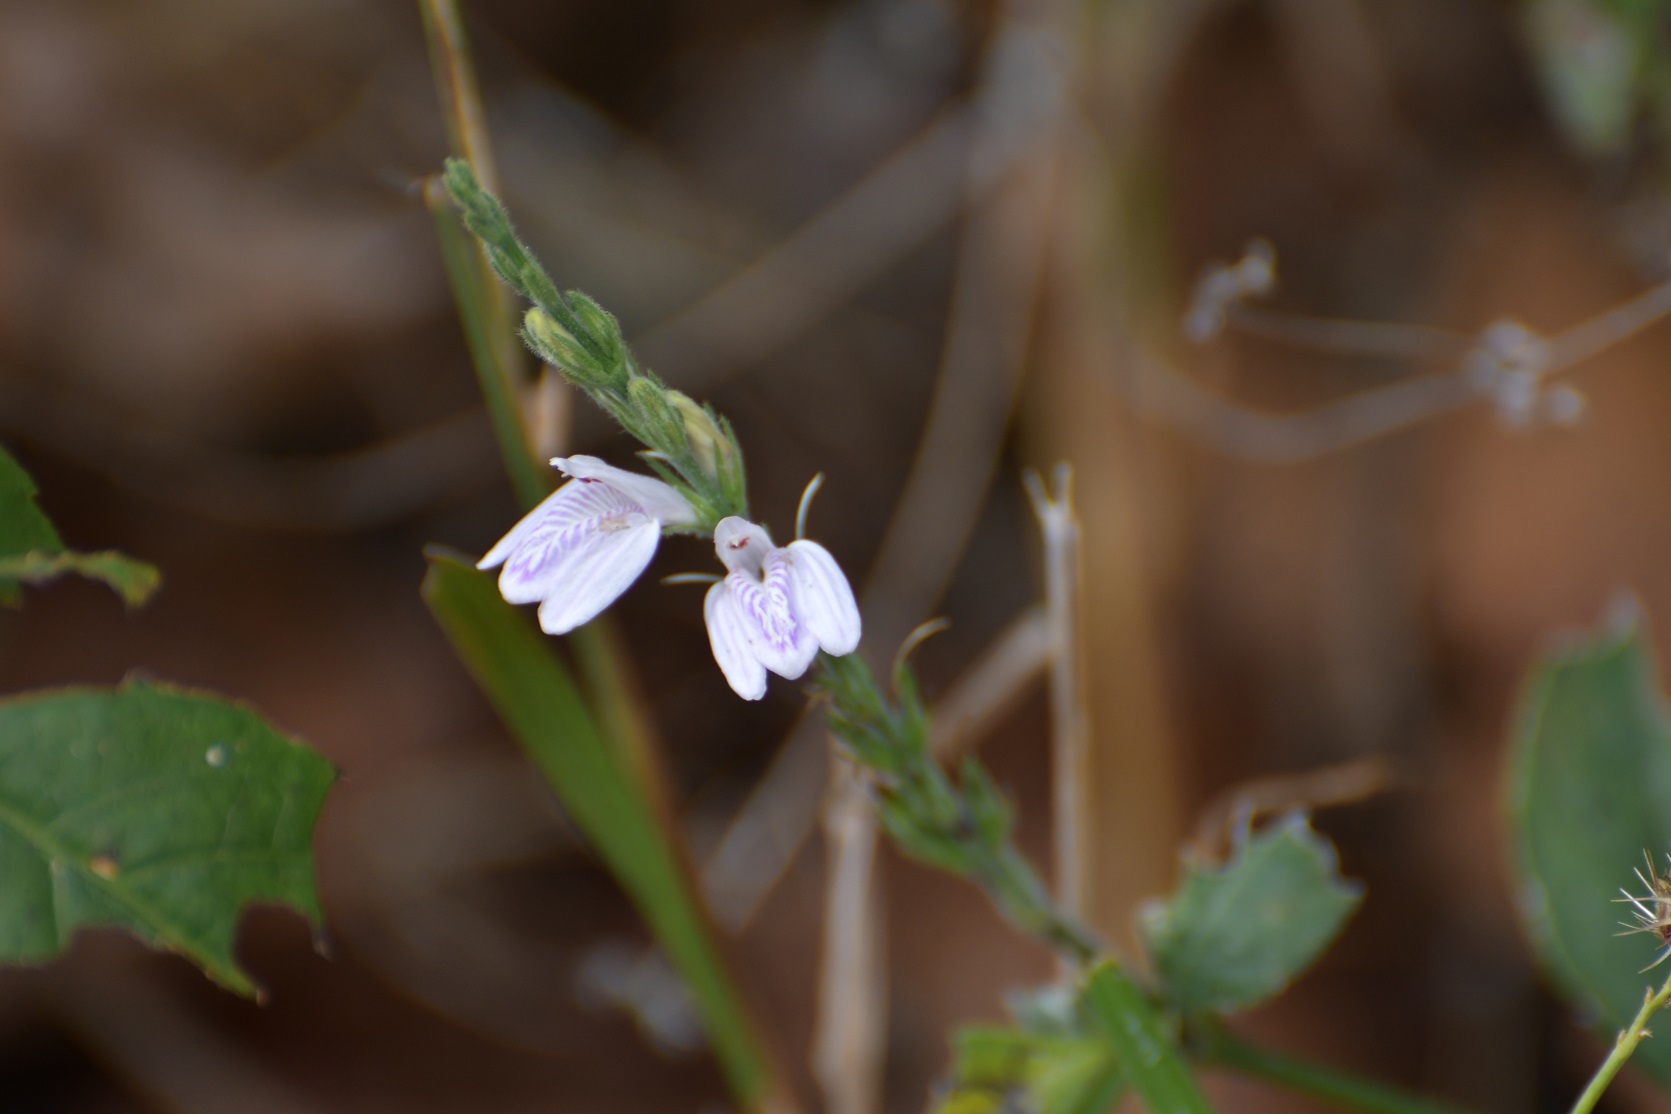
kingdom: Plantae
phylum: Tracheophyta
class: Magnoliopsida
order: Lamiales
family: Acanthaceae
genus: Dianthera
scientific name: Dianthera breviflora
